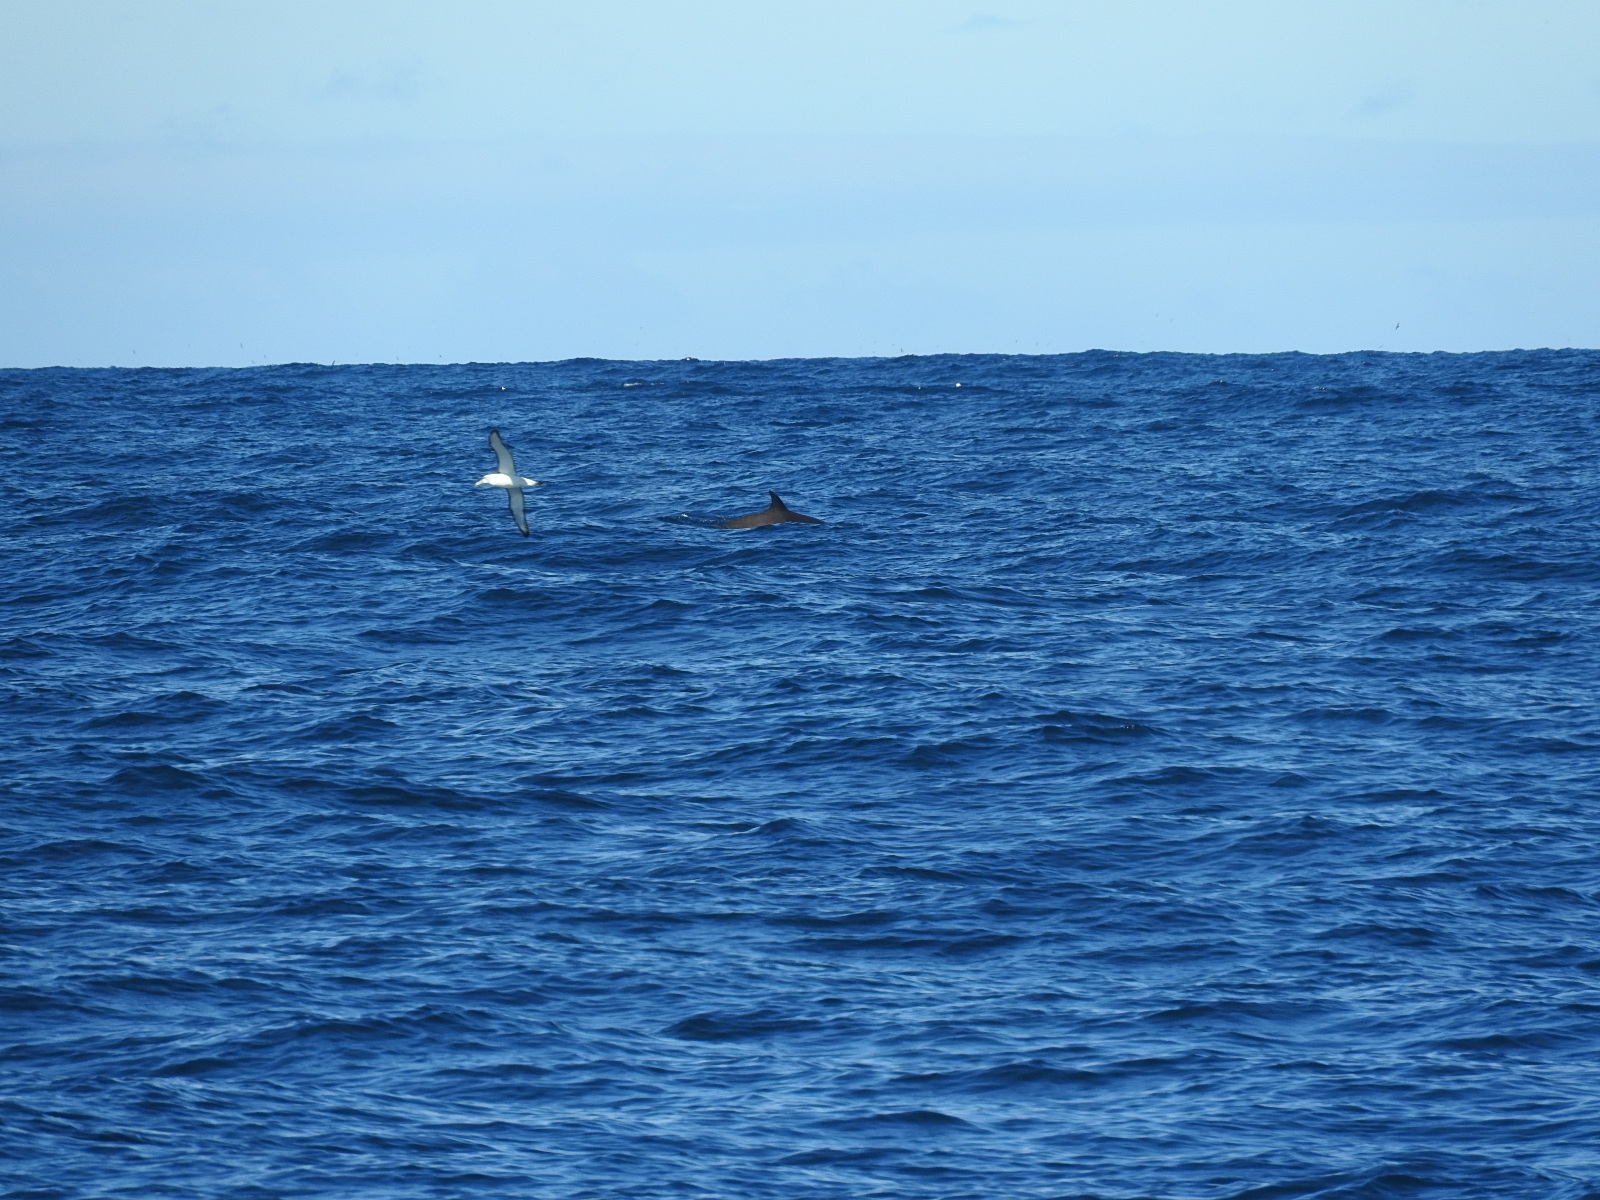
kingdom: Animalia
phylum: Chordata
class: Mammalia
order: Cetacea
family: Hyperoodontidae
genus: Tasmacetus
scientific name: Tasmacetus shepherdi
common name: Shepherd's beaked whale
